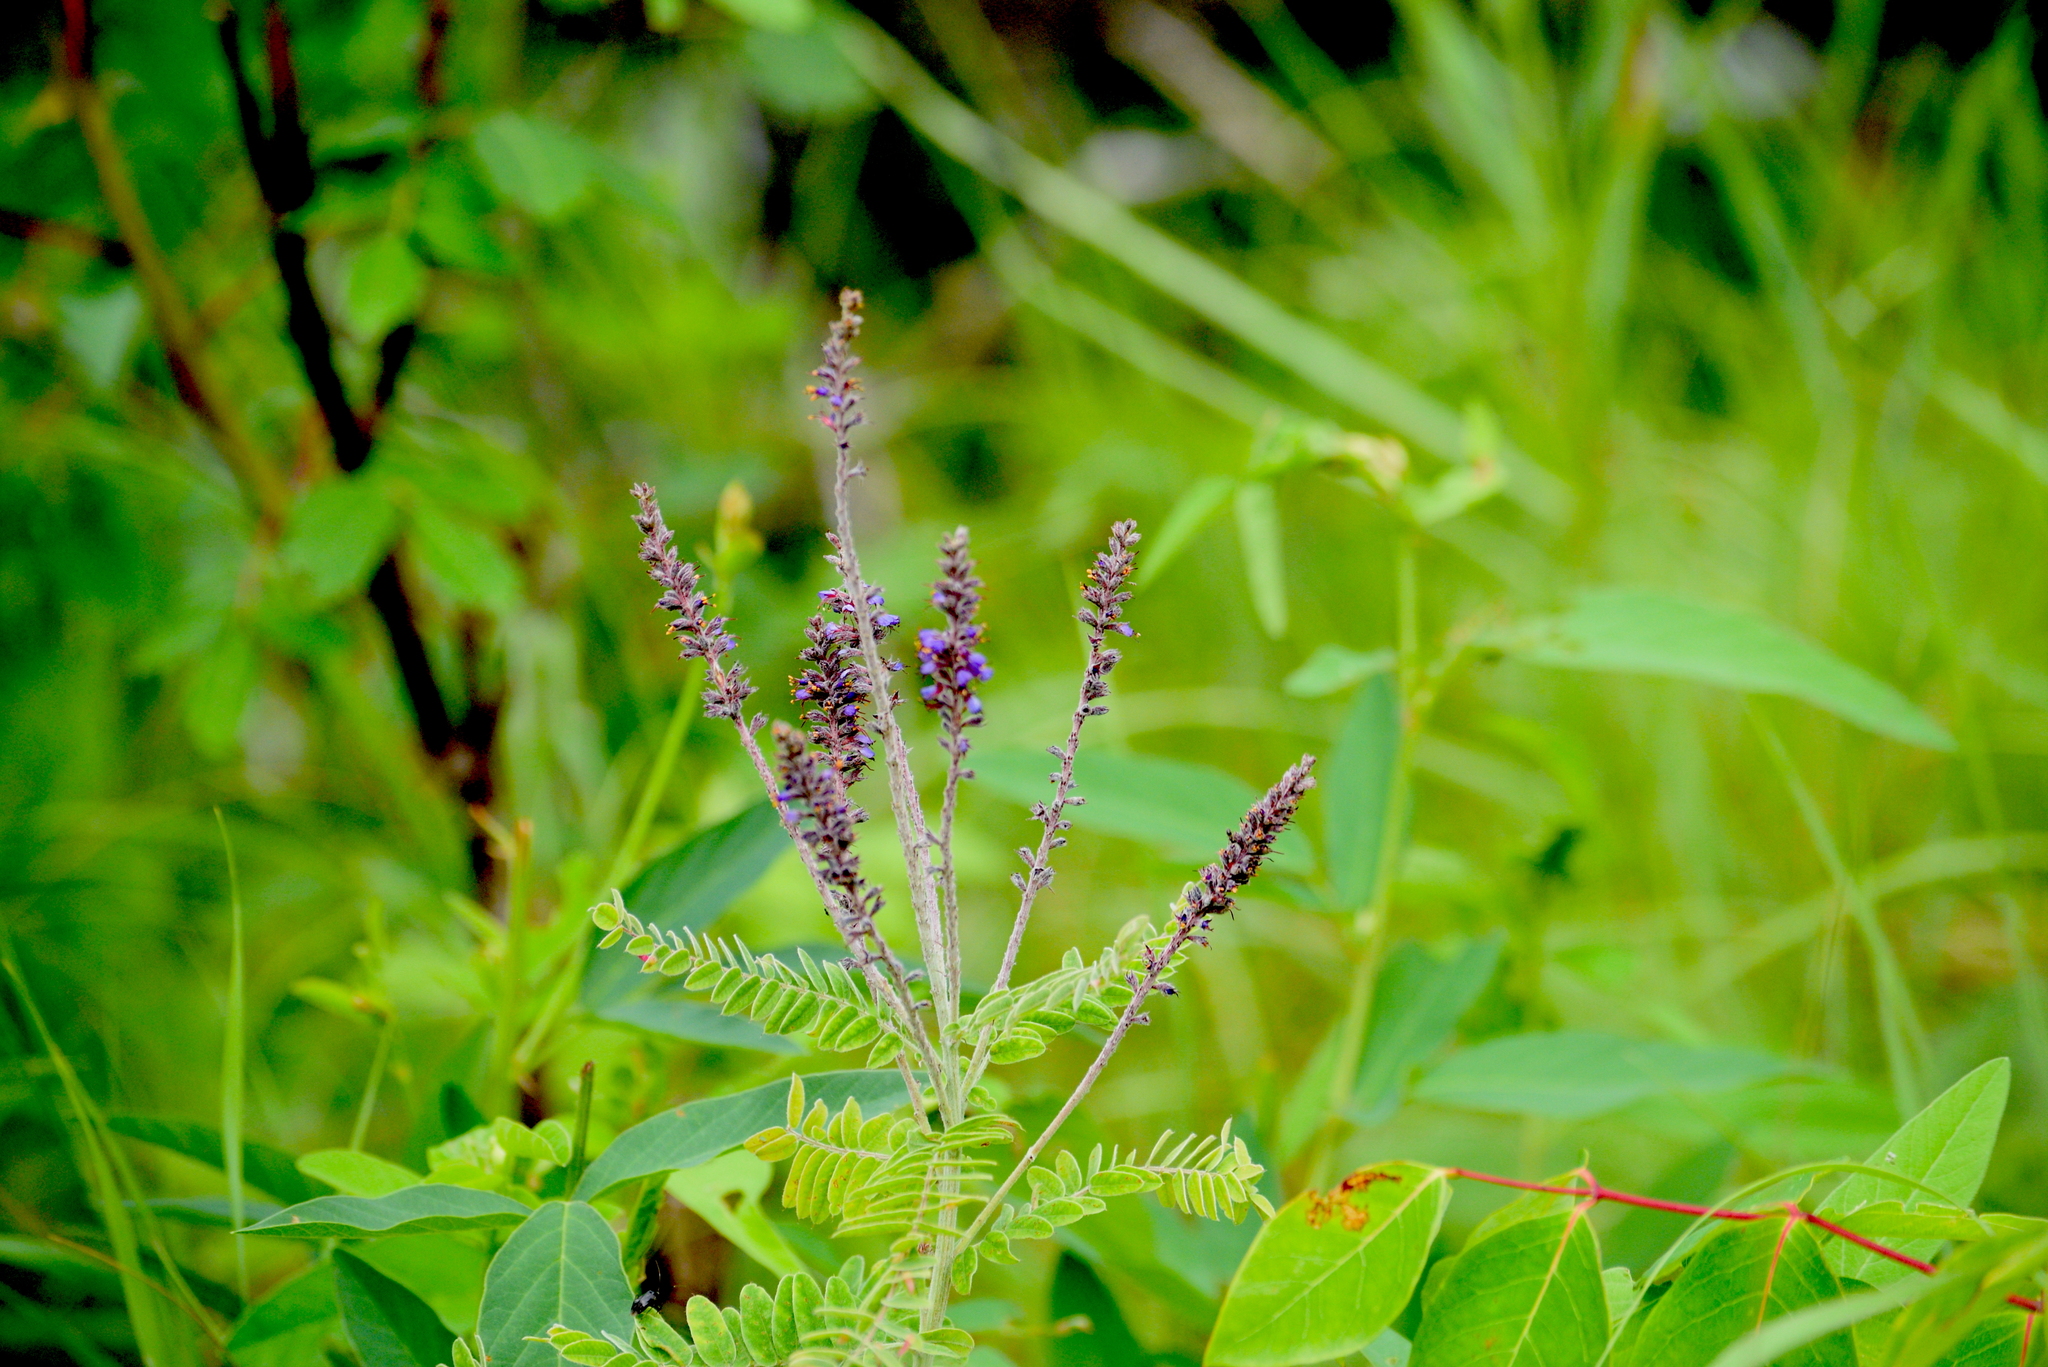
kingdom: Plantae
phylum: Tracheophyta
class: Magnoliopsida
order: Fabales
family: Fabaceae
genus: Amorpha
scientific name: Amorpha canescens
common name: Leadplant
